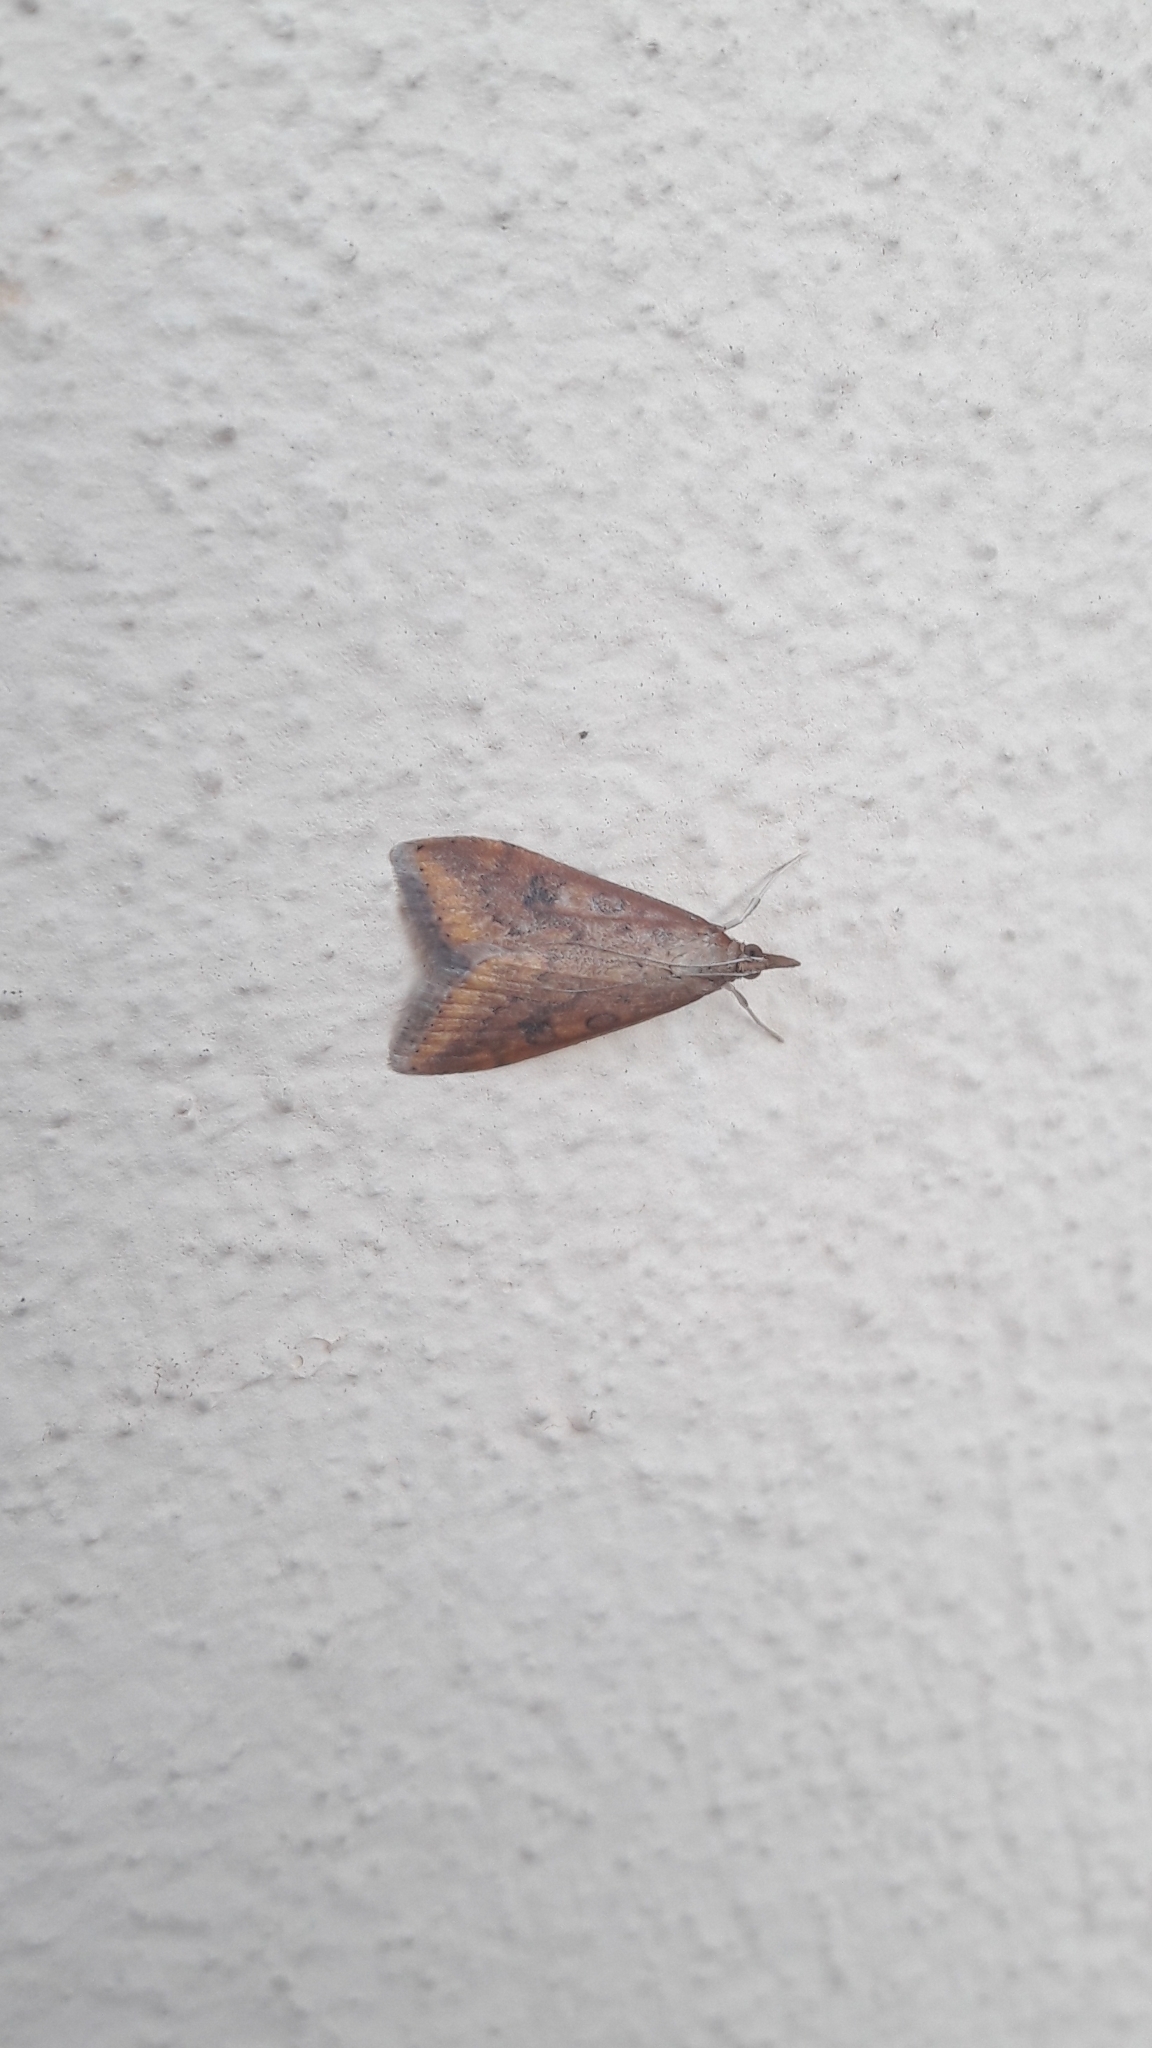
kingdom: Animalia
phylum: Arthropoda
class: Insecta
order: Lepidoptera
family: Crambidae
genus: Udea
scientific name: Udea ferrugalis
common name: Rusty dot
